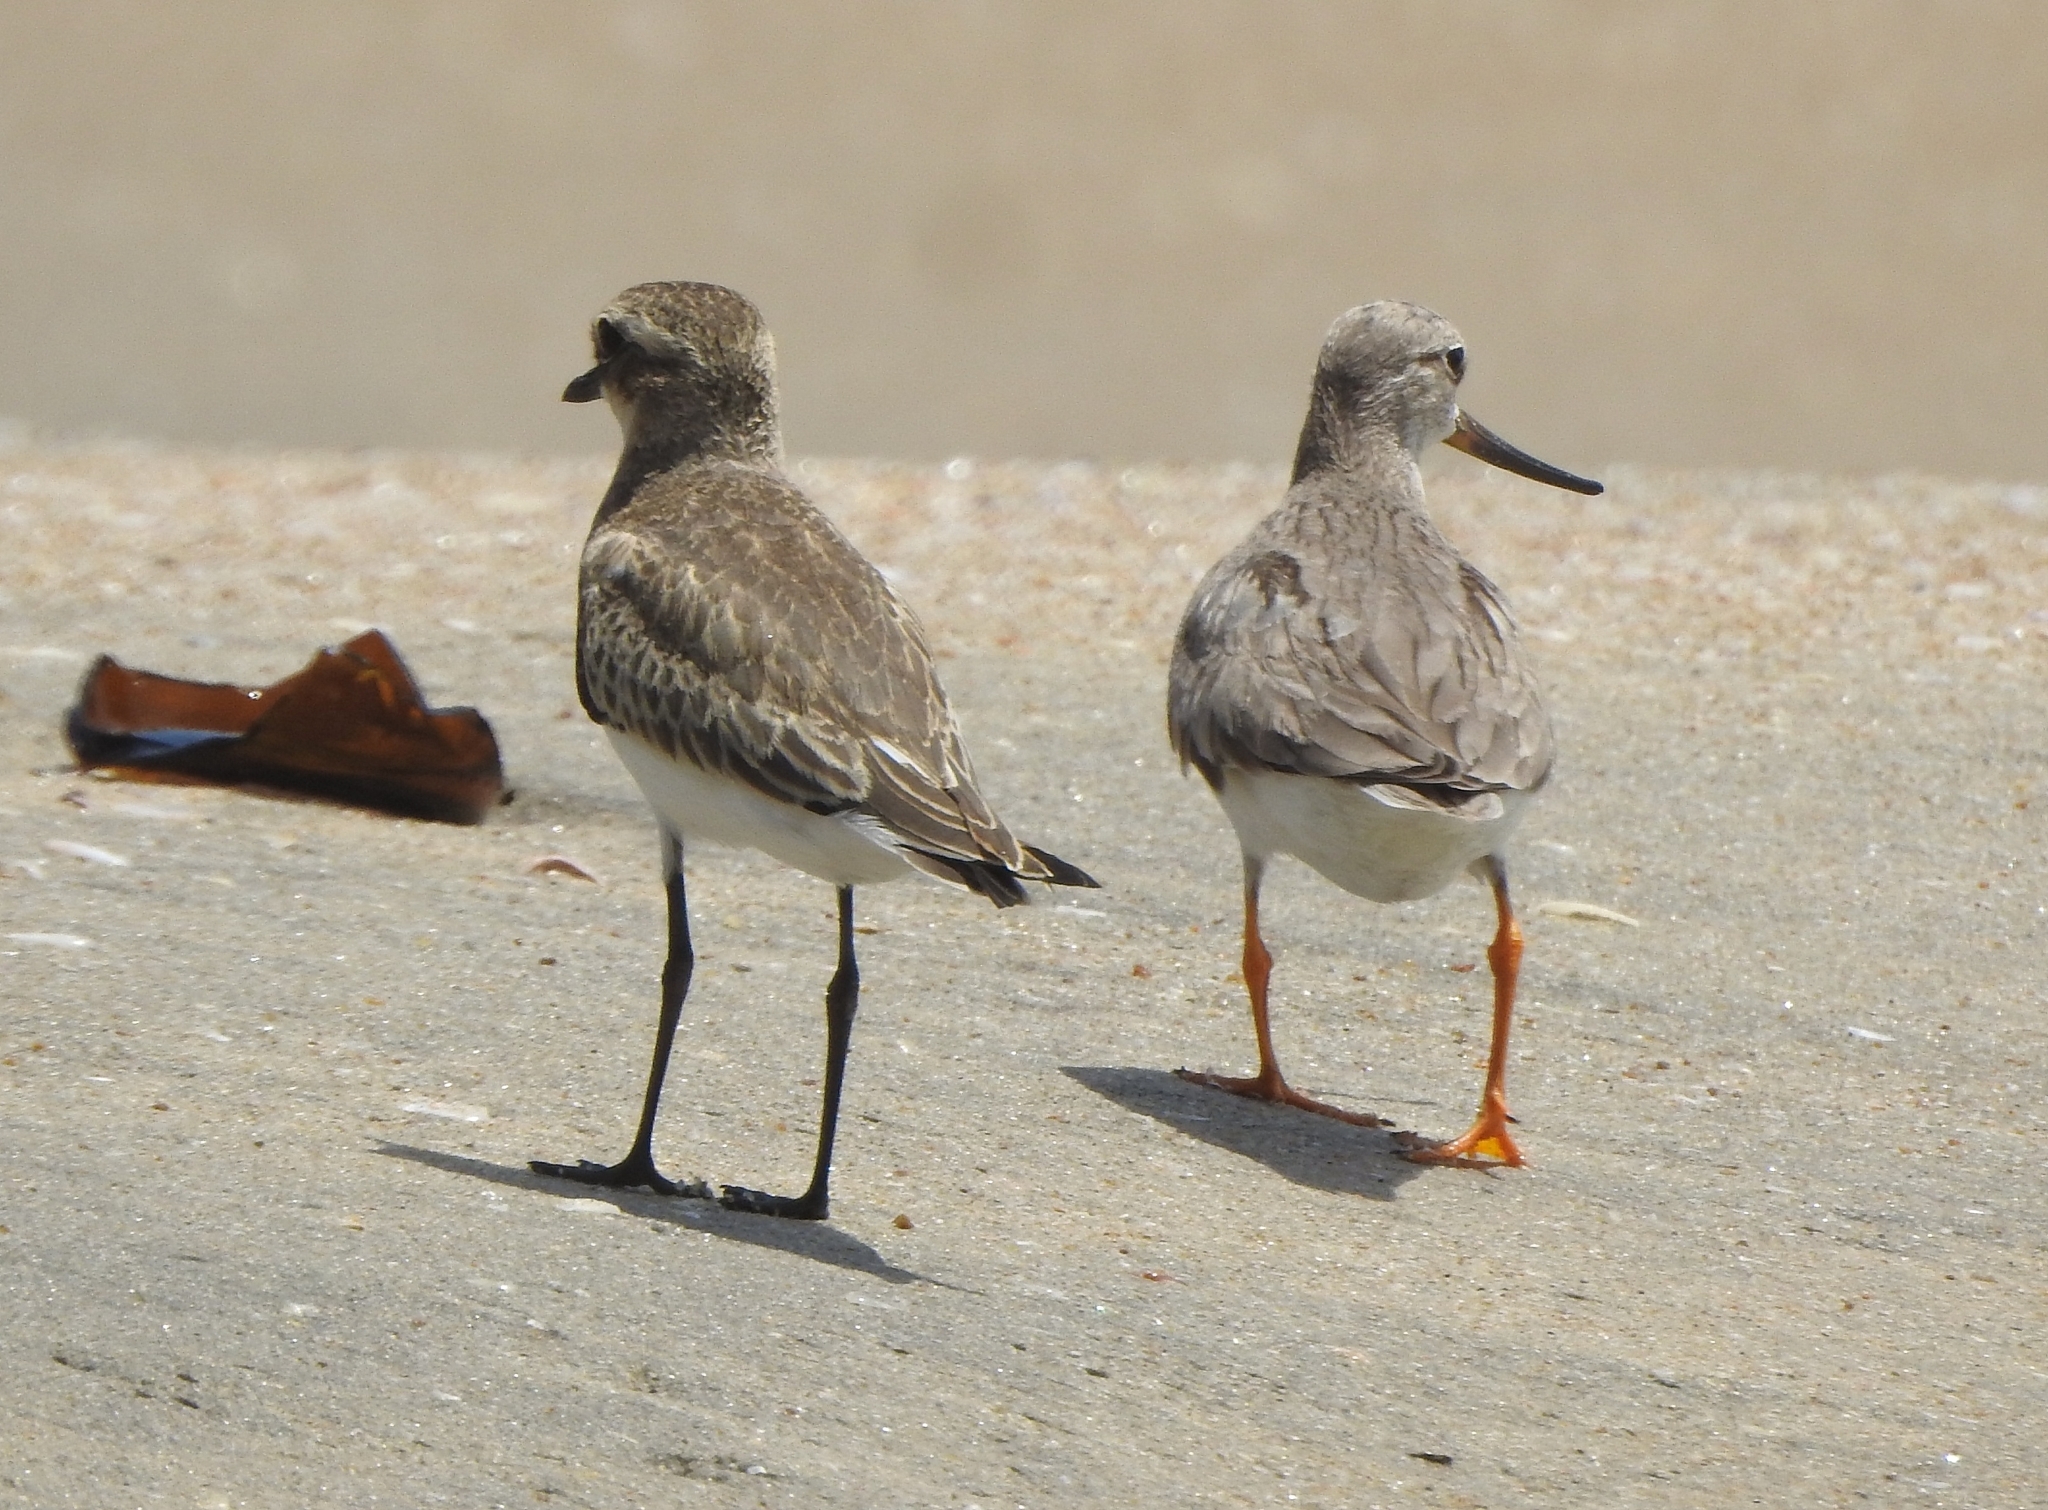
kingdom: Animalia
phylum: Chordata
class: Aves
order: Charadriiformes
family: Scolopacidae
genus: Xenus
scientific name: Xenus cinereus
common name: Terek sandpiper
